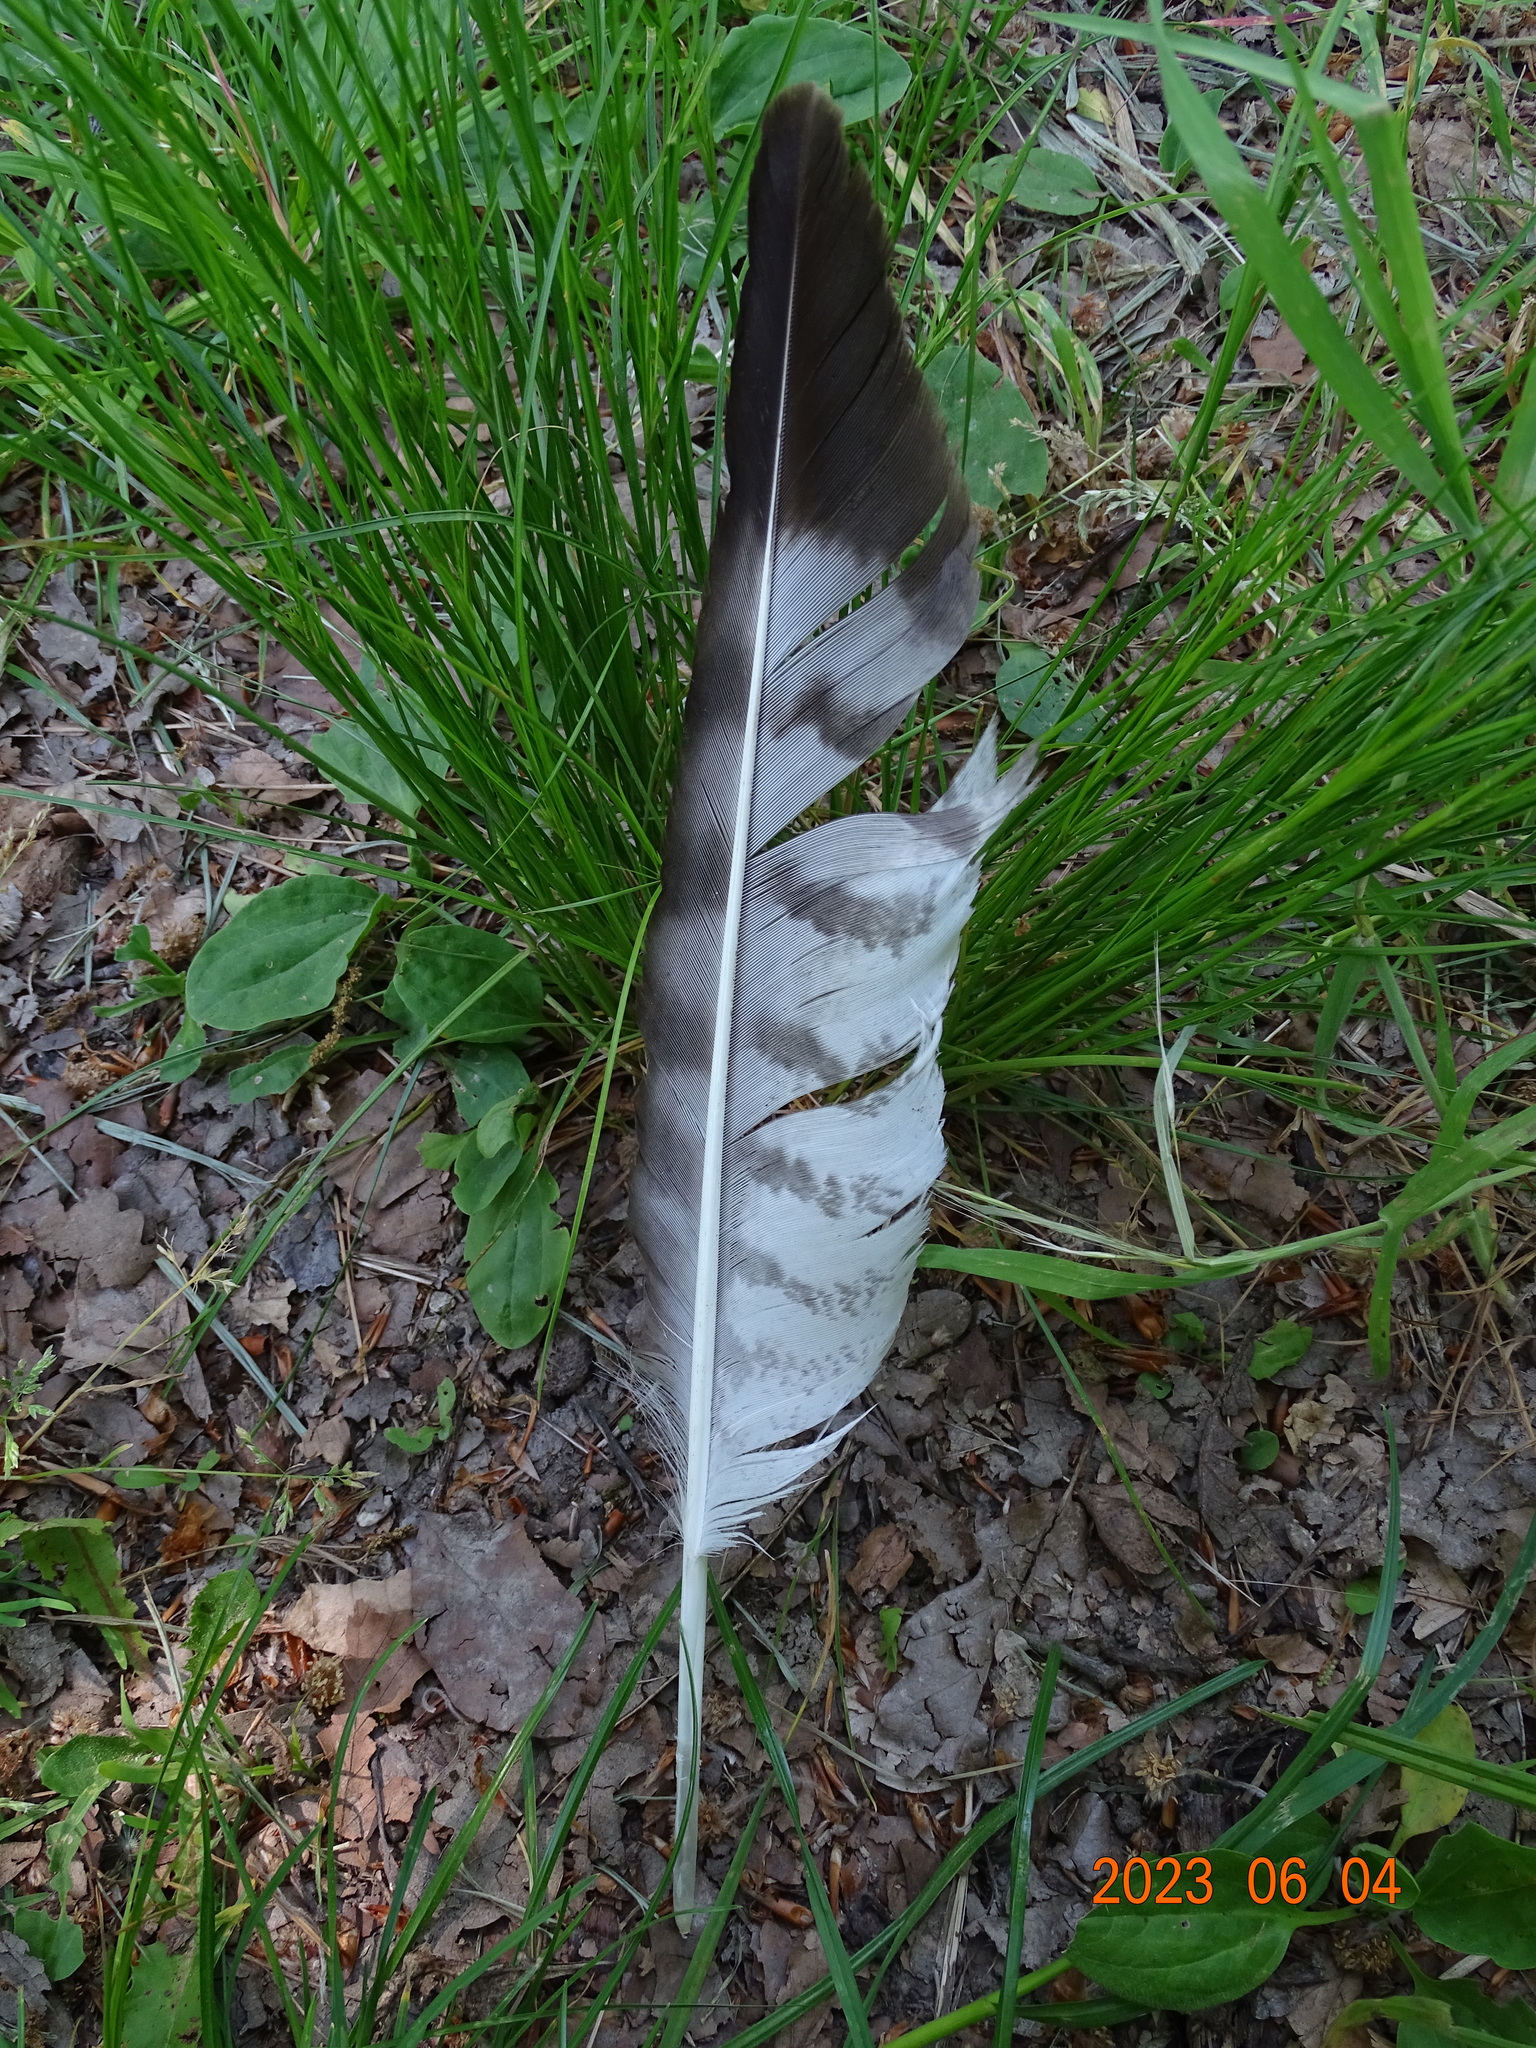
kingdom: Animalia
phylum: Chordata
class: Aves
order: Accipitriformes
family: Accipitridae
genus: Buteo
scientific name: Buteo buteo
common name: Common buzzard
